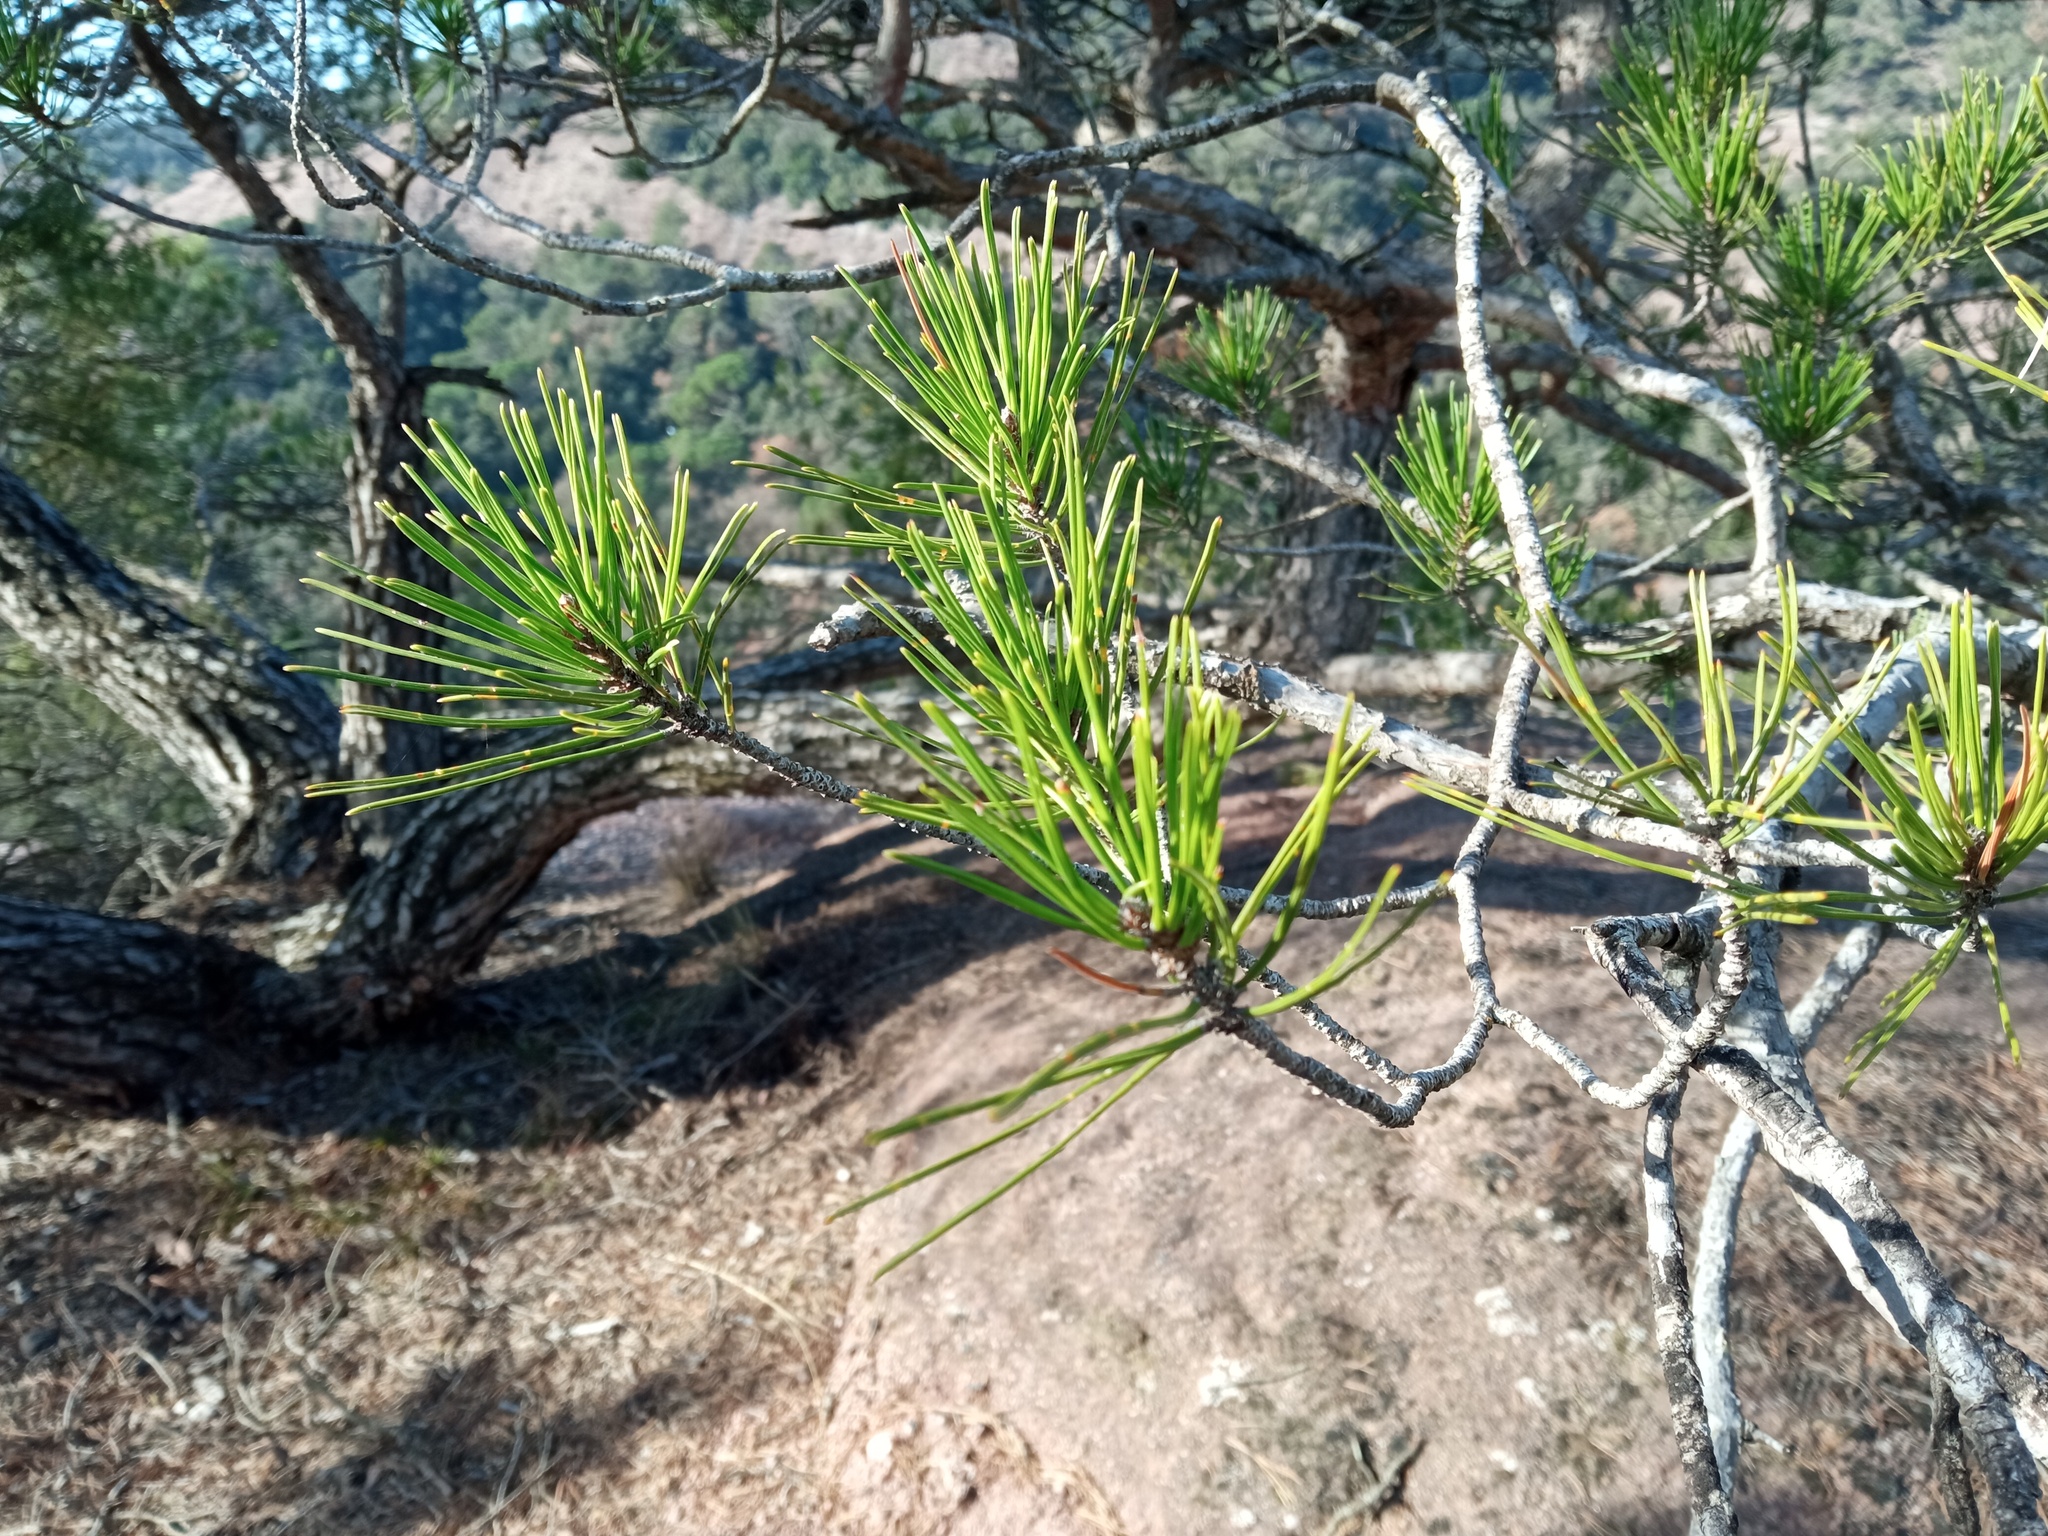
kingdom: Plantae
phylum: Tracheophyta
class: Pinopsida
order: Pinales
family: Pinaceae
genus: Pinus
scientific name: Pinus halepensis
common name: Aleppo pine
